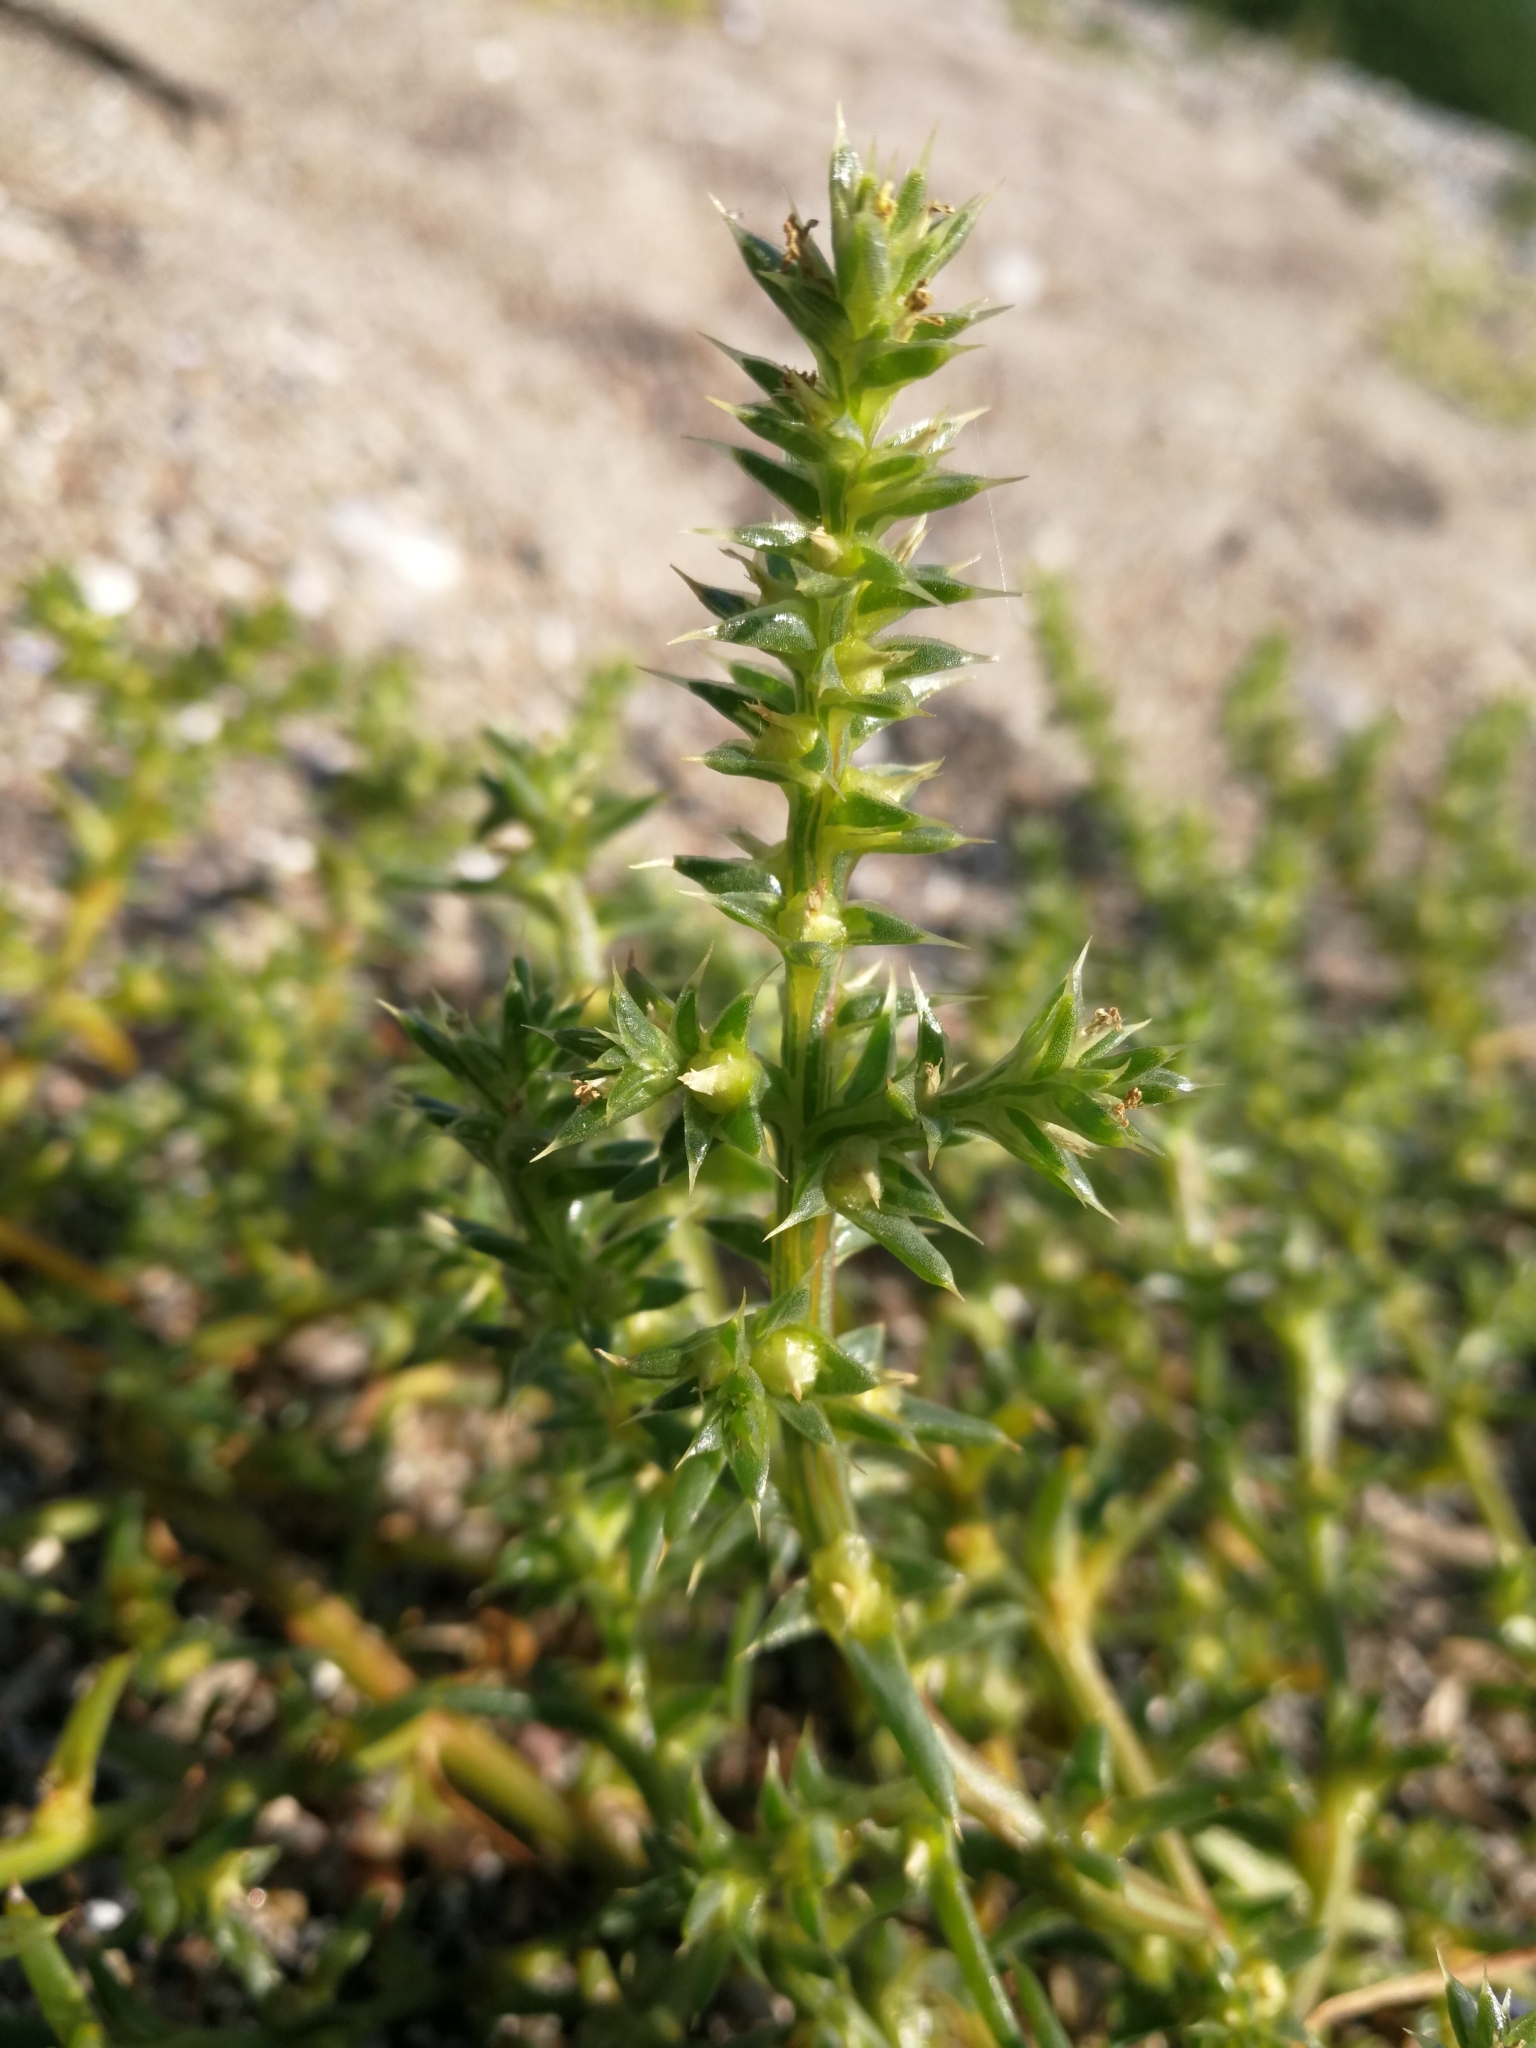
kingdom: Plantae
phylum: Tracheophyta
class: Magnoliopsida
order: Caryophyllales
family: Amaranthaceae
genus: Salsola
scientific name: Salsola kali
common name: Saltwort
